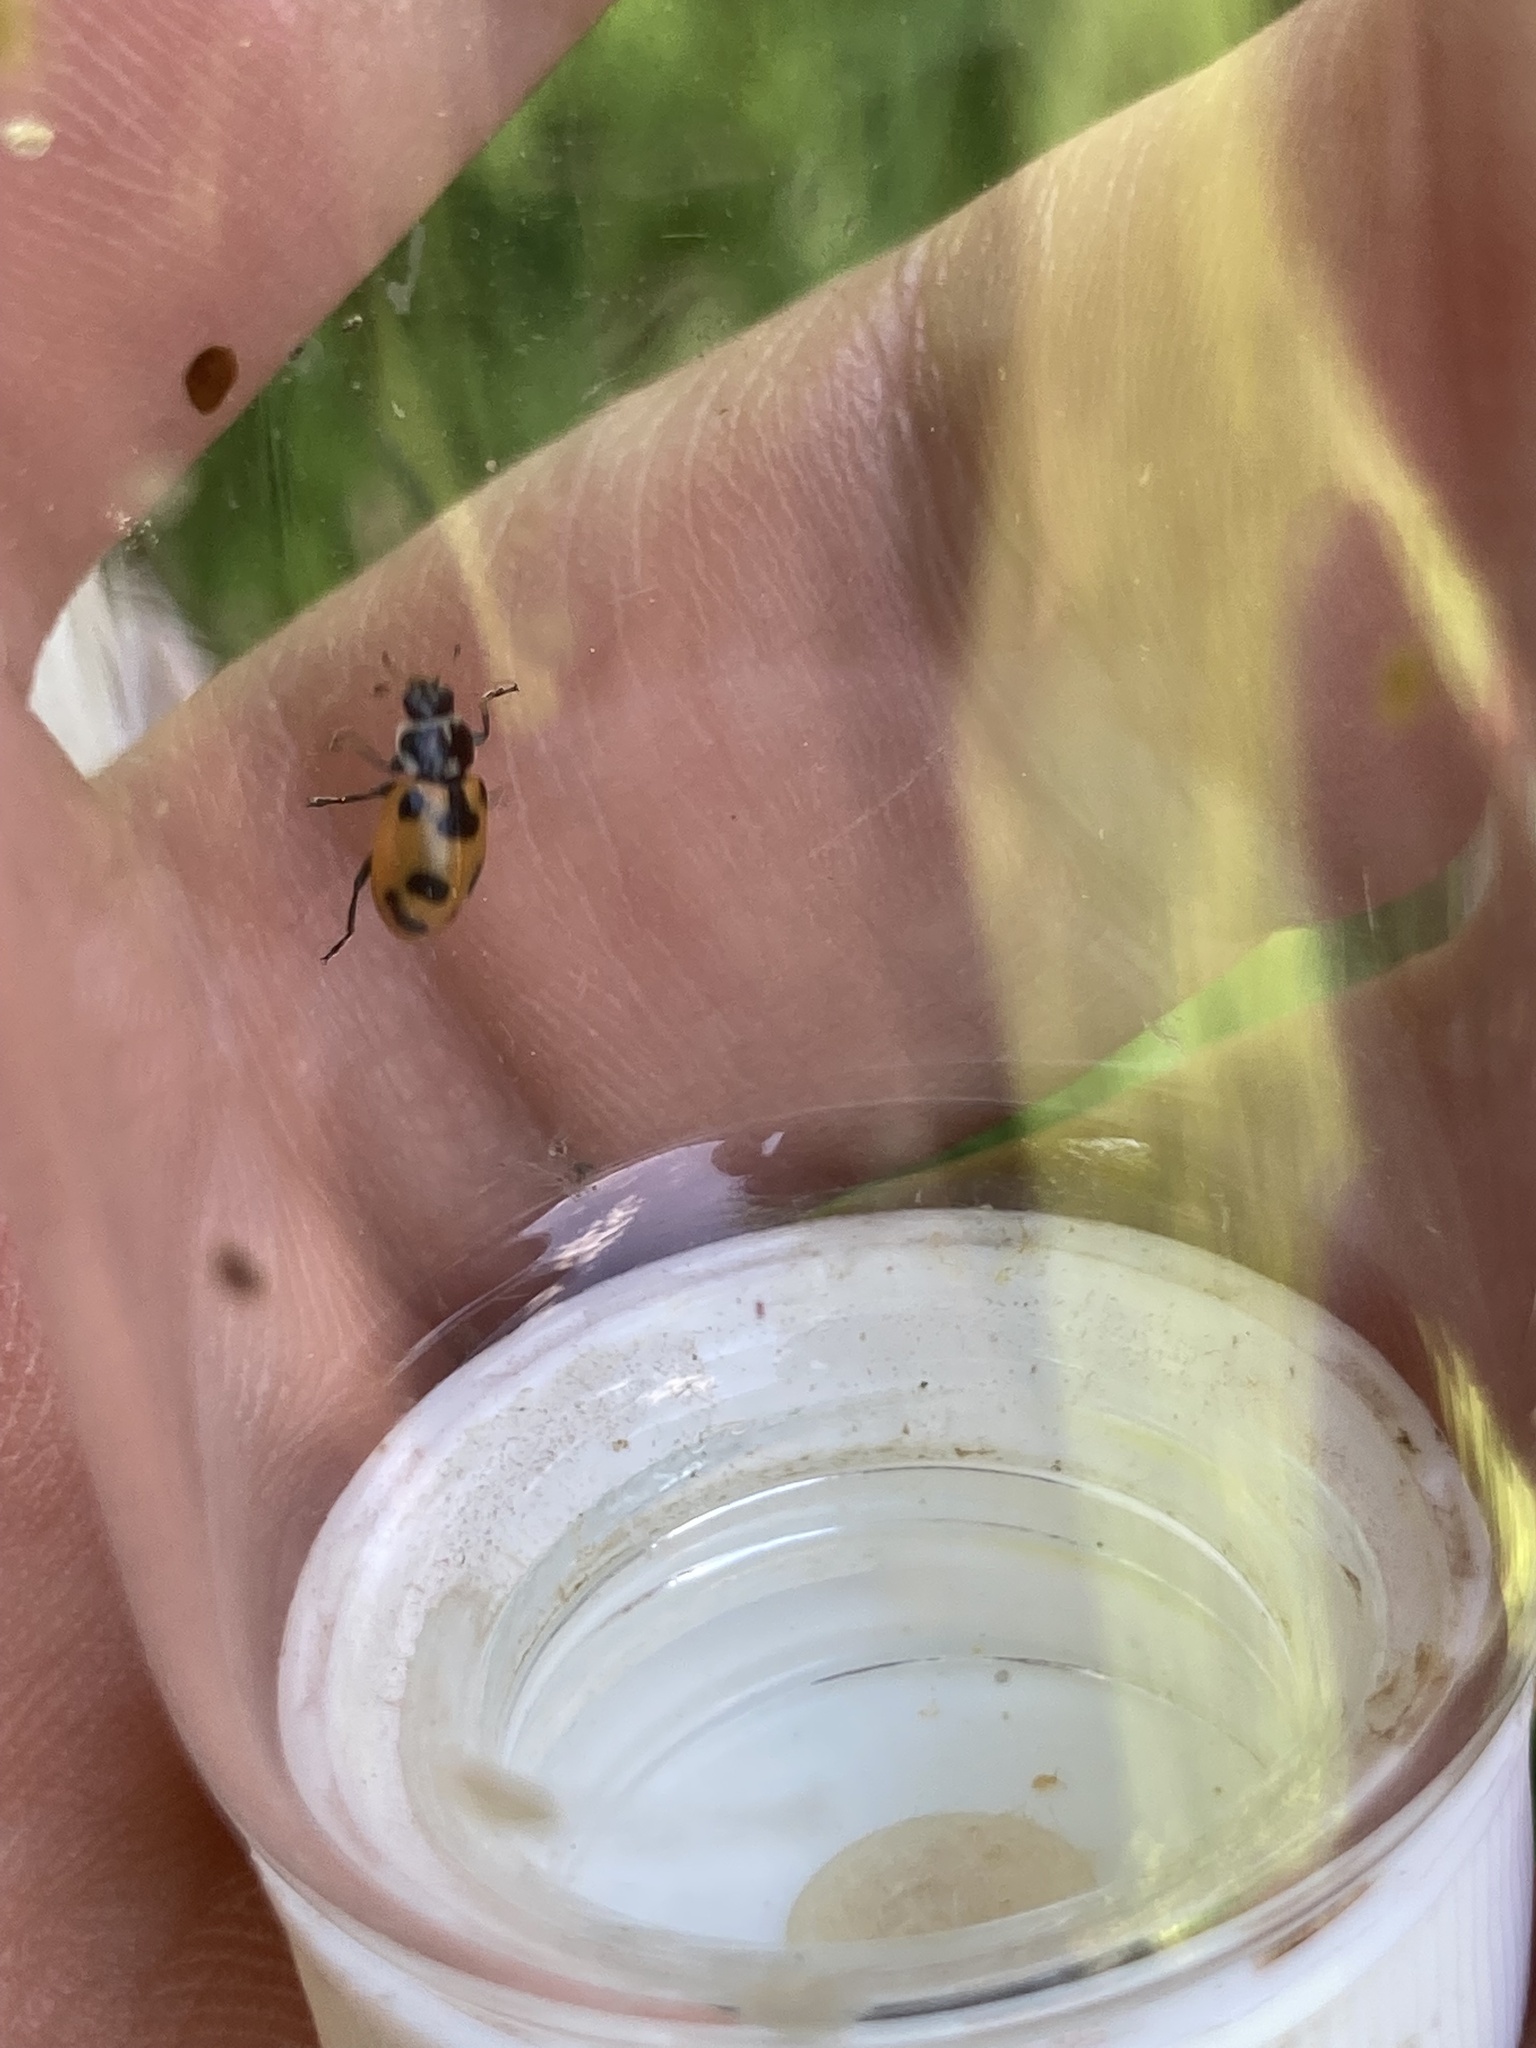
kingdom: Animalia
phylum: Arthropoda
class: Insecta
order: Coleoptera
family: Coccinellidae
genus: Hippodamia
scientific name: Hippodamia parenthesis
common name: Parenthesis lady beetle
